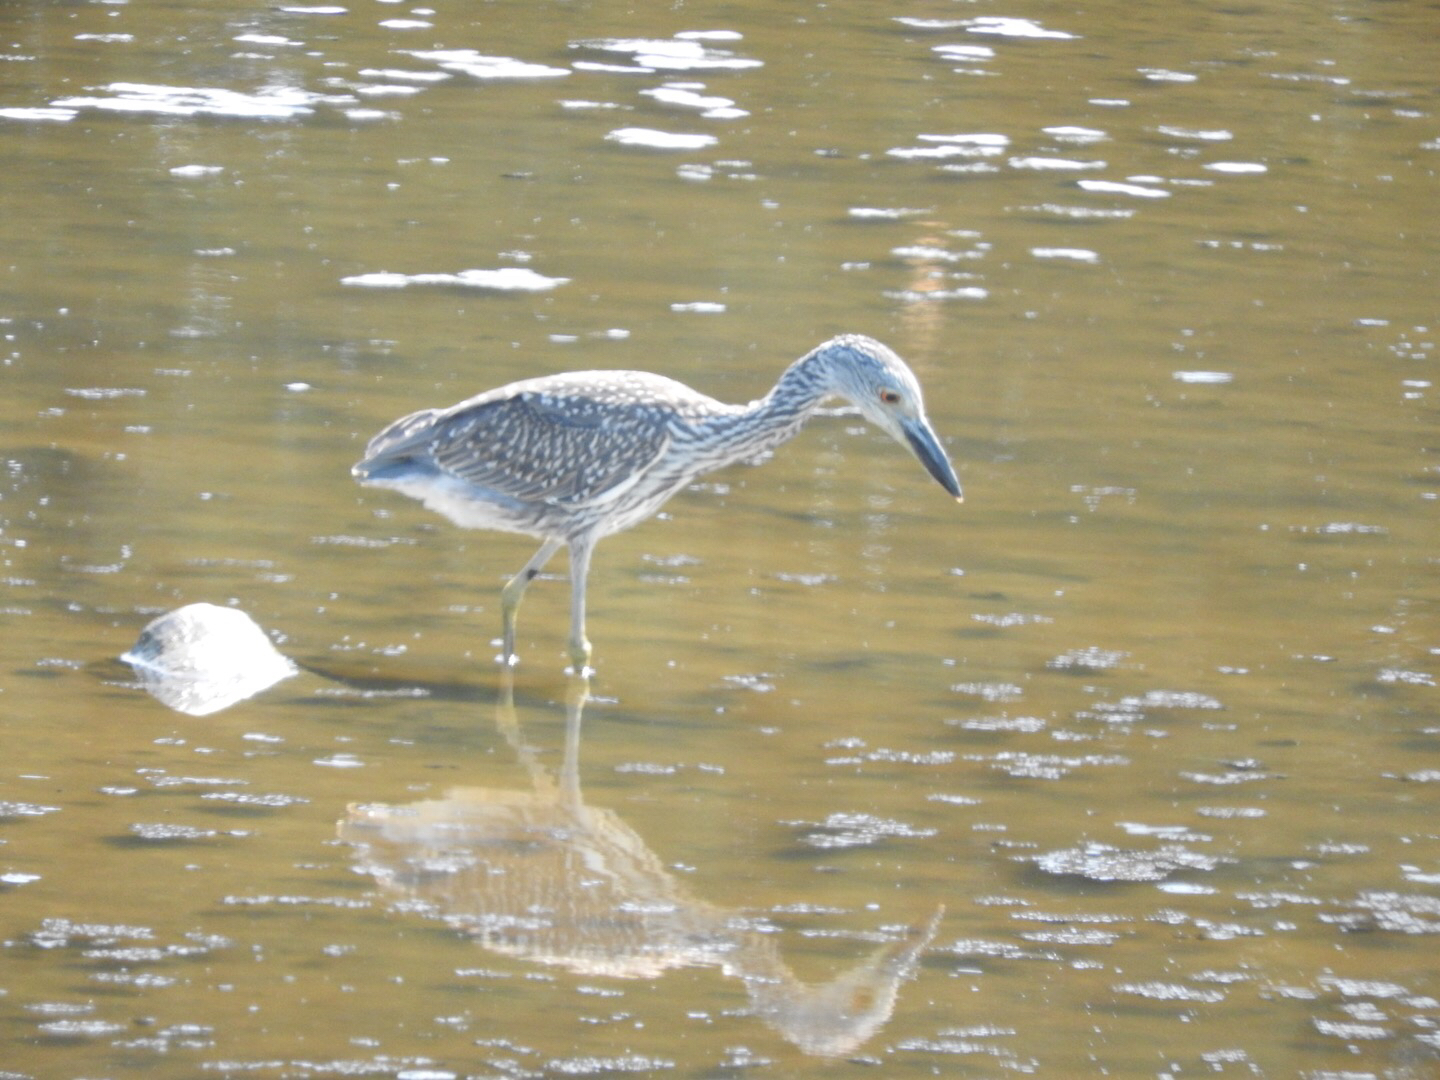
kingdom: Animalia
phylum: Chordata
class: Aves
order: Pelecaniformes
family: Ardeidae
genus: Nyctanassa
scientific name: Nyctanassa violacea
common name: Yellow-crowned night heron
